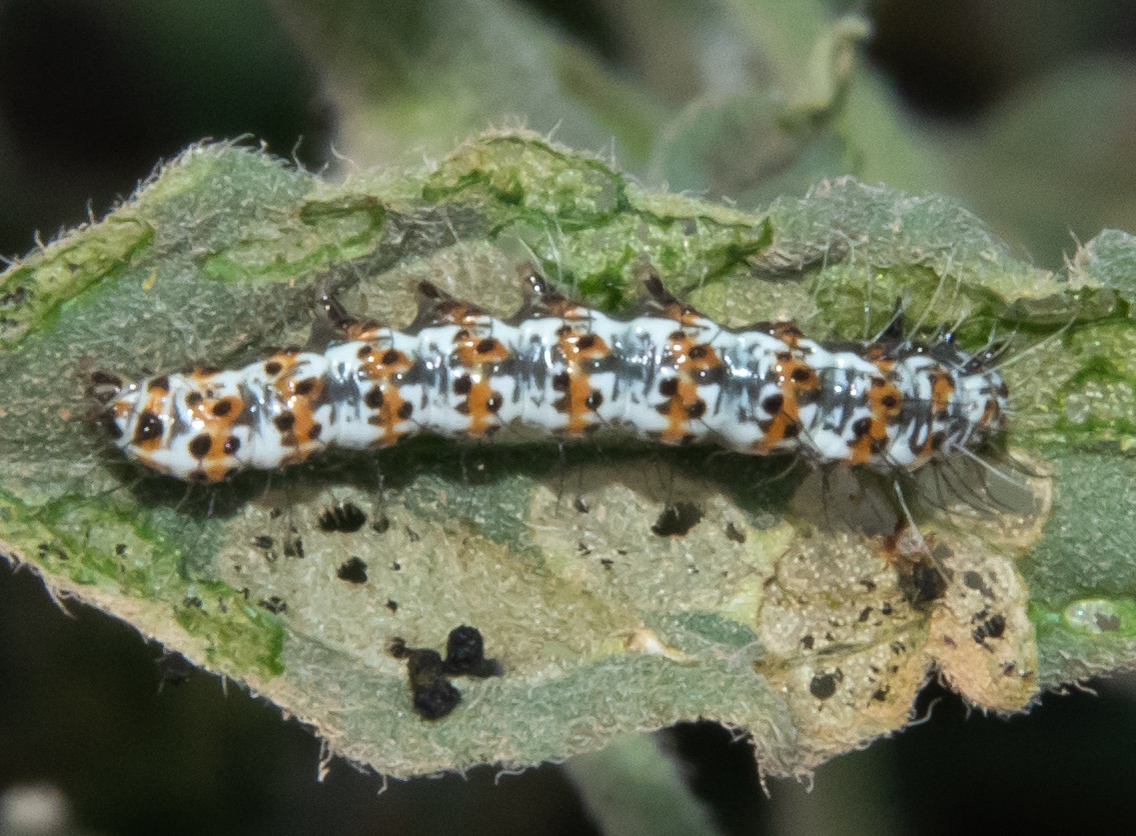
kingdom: Animalia
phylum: Arthropoda
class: Insecta
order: Lepidoptera
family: Erebidae
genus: Utetheisa
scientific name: Utetheisa pulchella
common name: Crimson speckled
